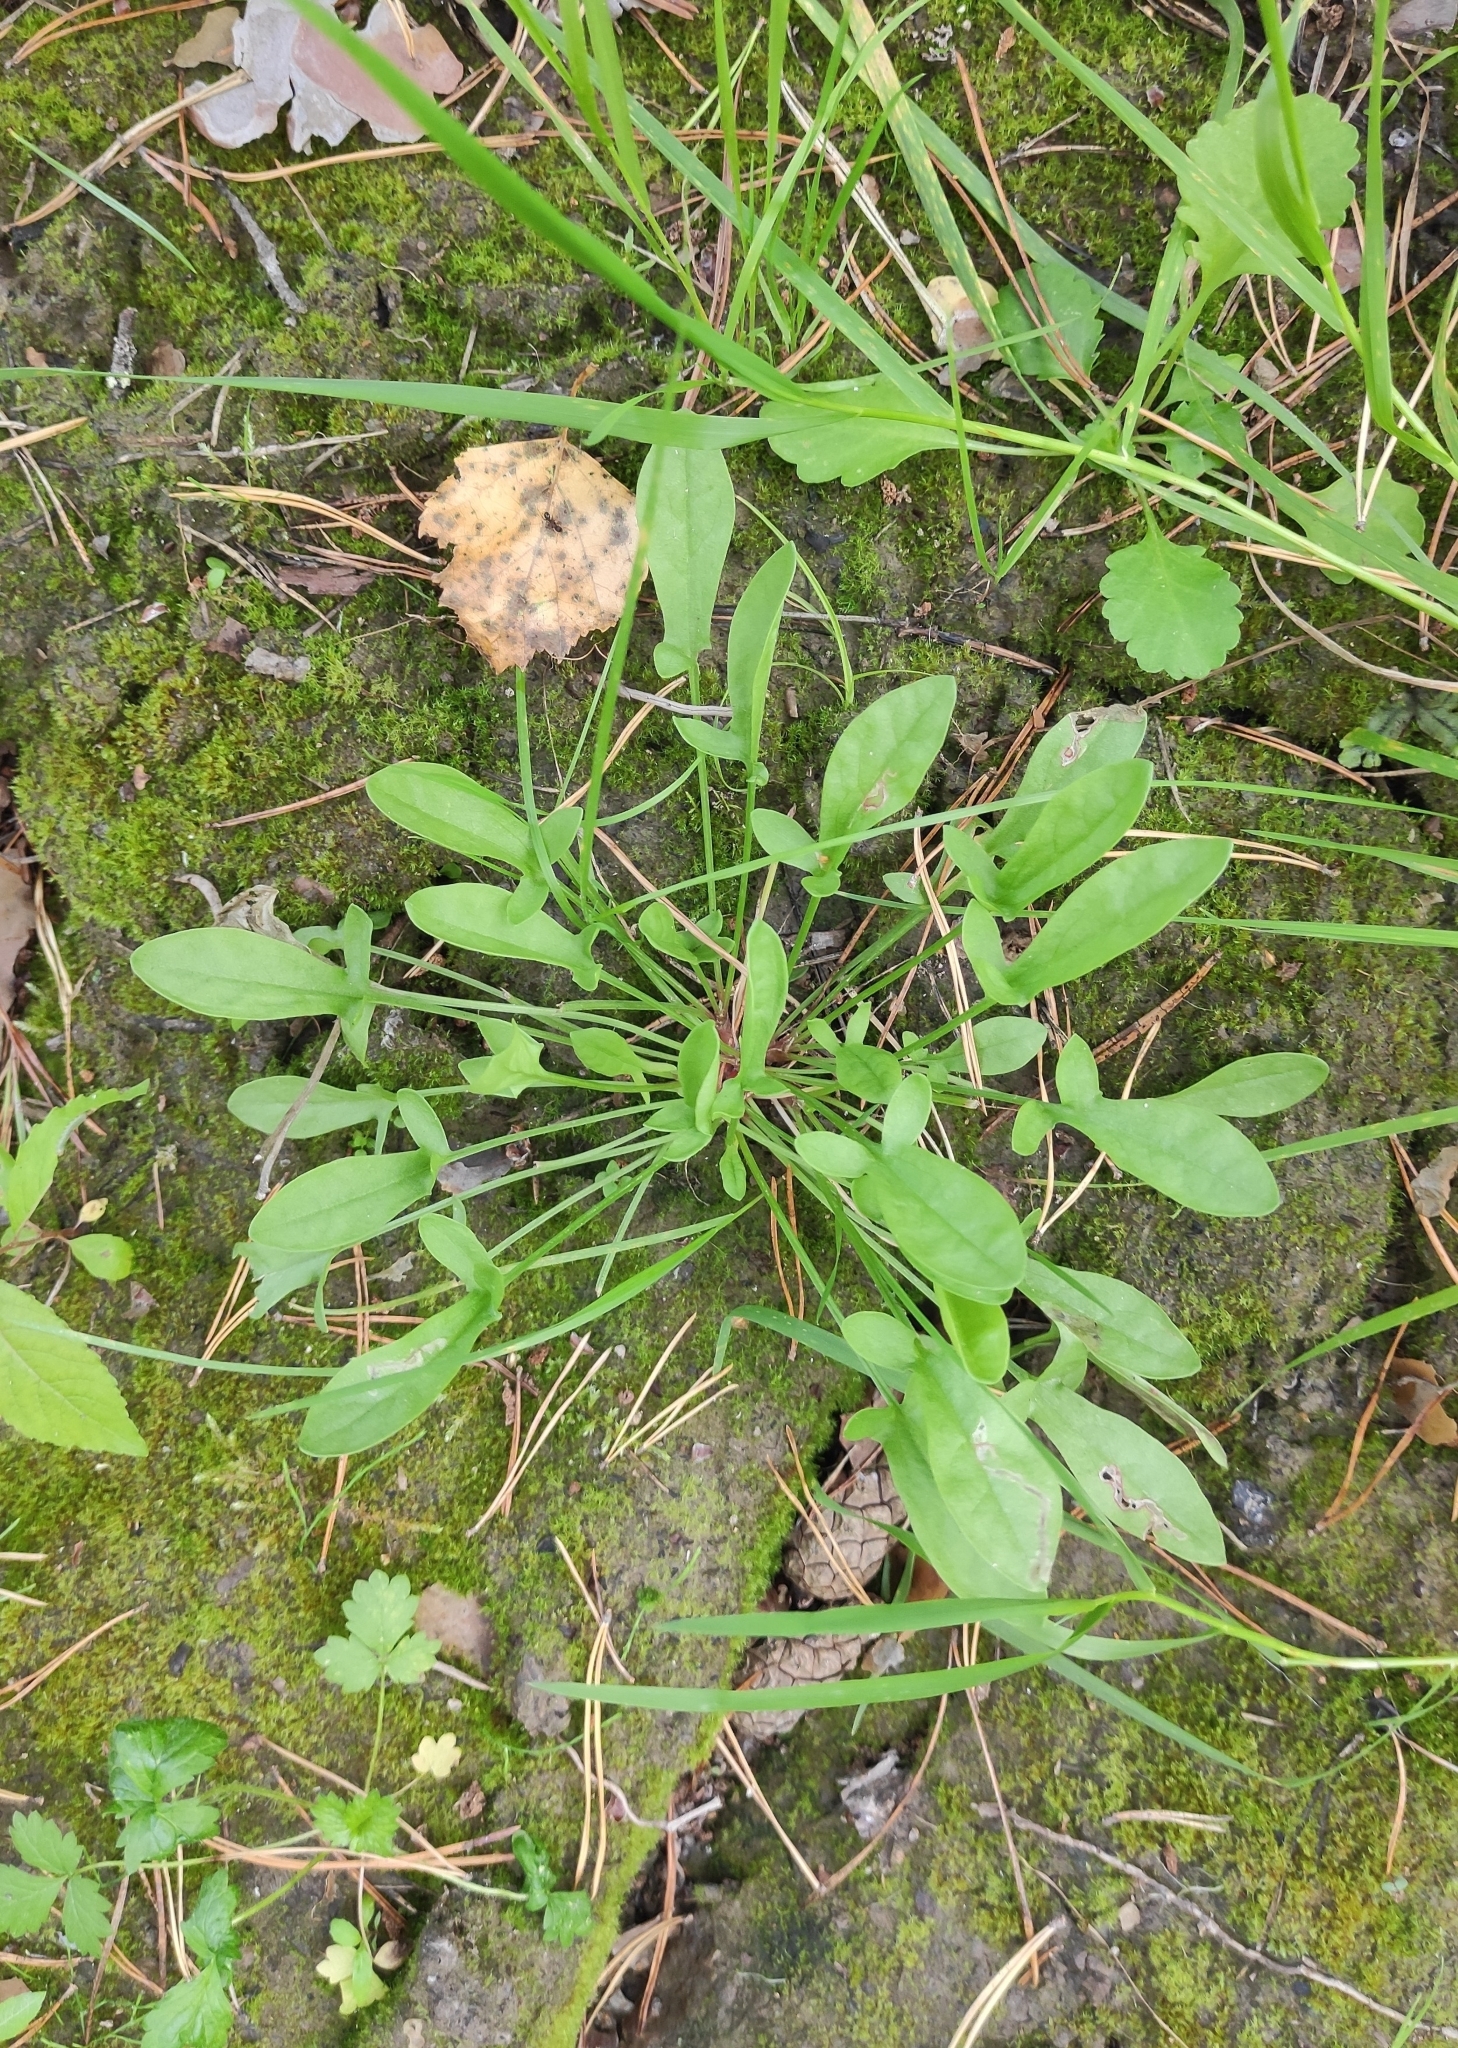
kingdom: Plantae
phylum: Tracheophyta
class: Magnoliopsida
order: Caryophyllales
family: Polygonaceae
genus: Rumex
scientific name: Rumex acetosella
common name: Common sheep sorrel
